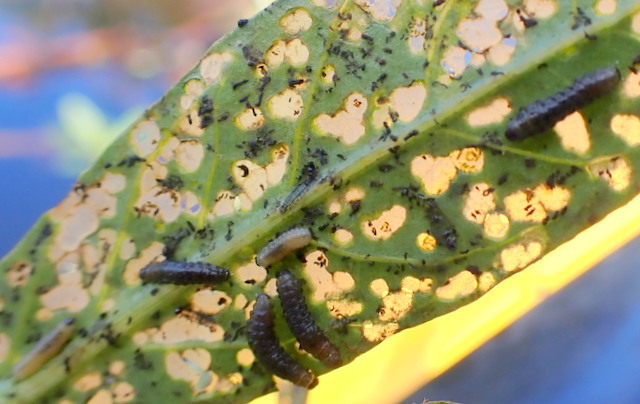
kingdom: Animalia
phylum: Arthropoda
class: Insecta
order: Coleoptera
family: Chrysomelidae
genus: Agasicles
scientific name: Agasicles hygrophila
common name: Alligatorweed flea beetle
